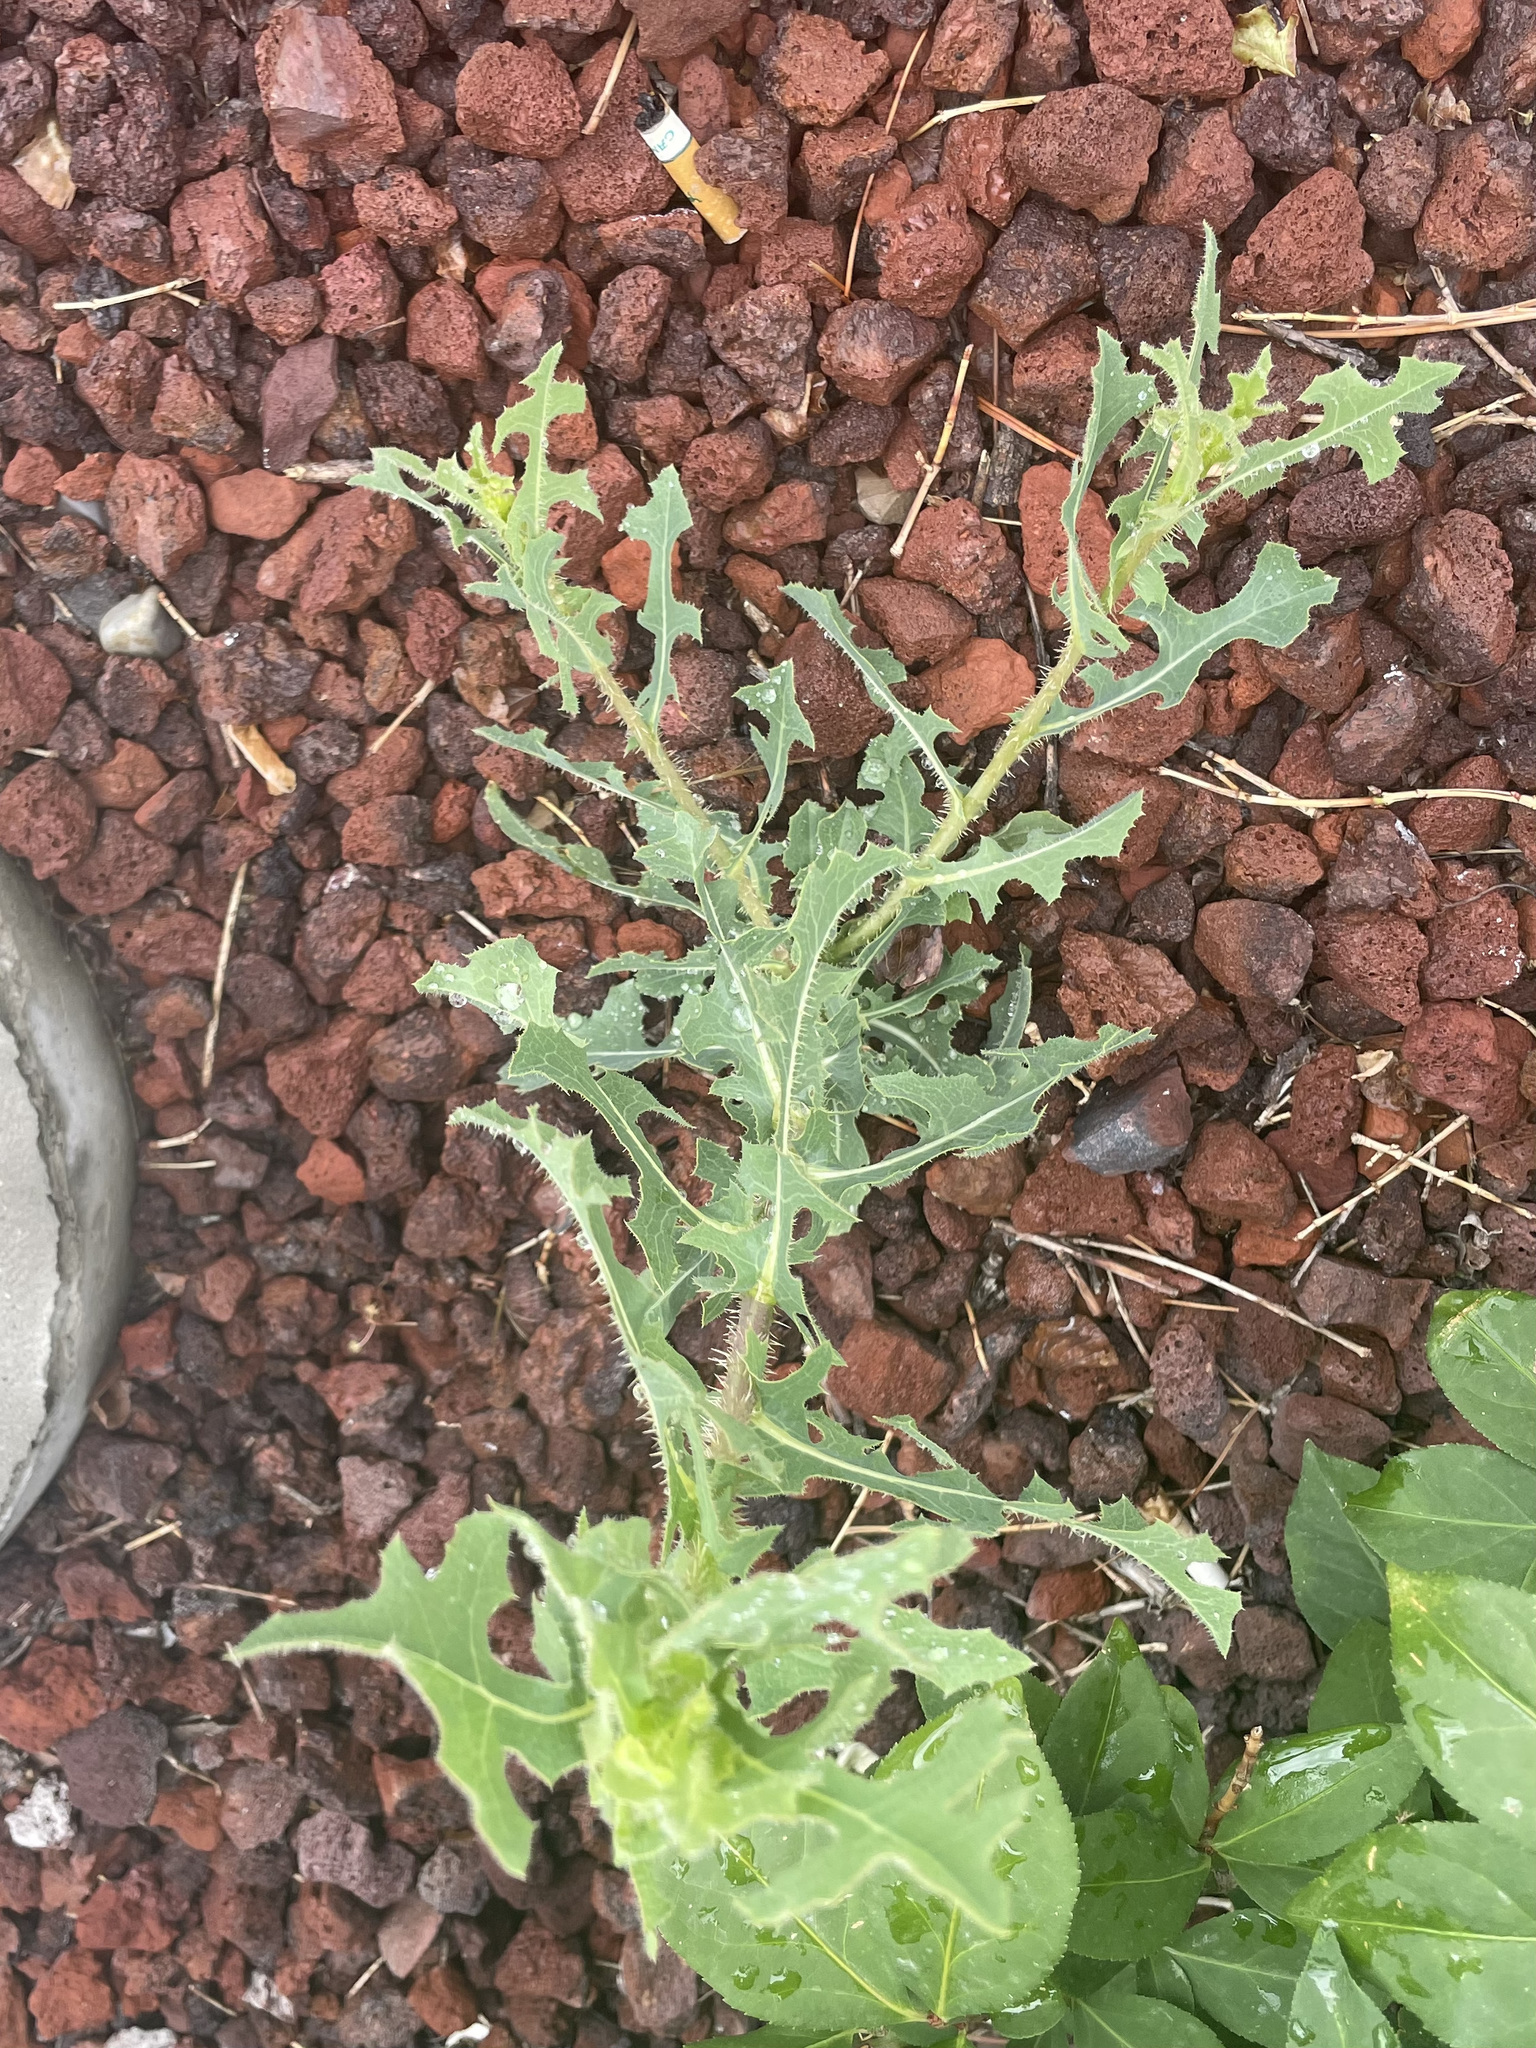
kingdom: Plantae
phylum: Tracheophyta
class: Magnoliopsida
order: Asterales
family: Asteraceae
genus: Lactuca
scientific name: Lactuca serriola
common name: Prickly lettuce
